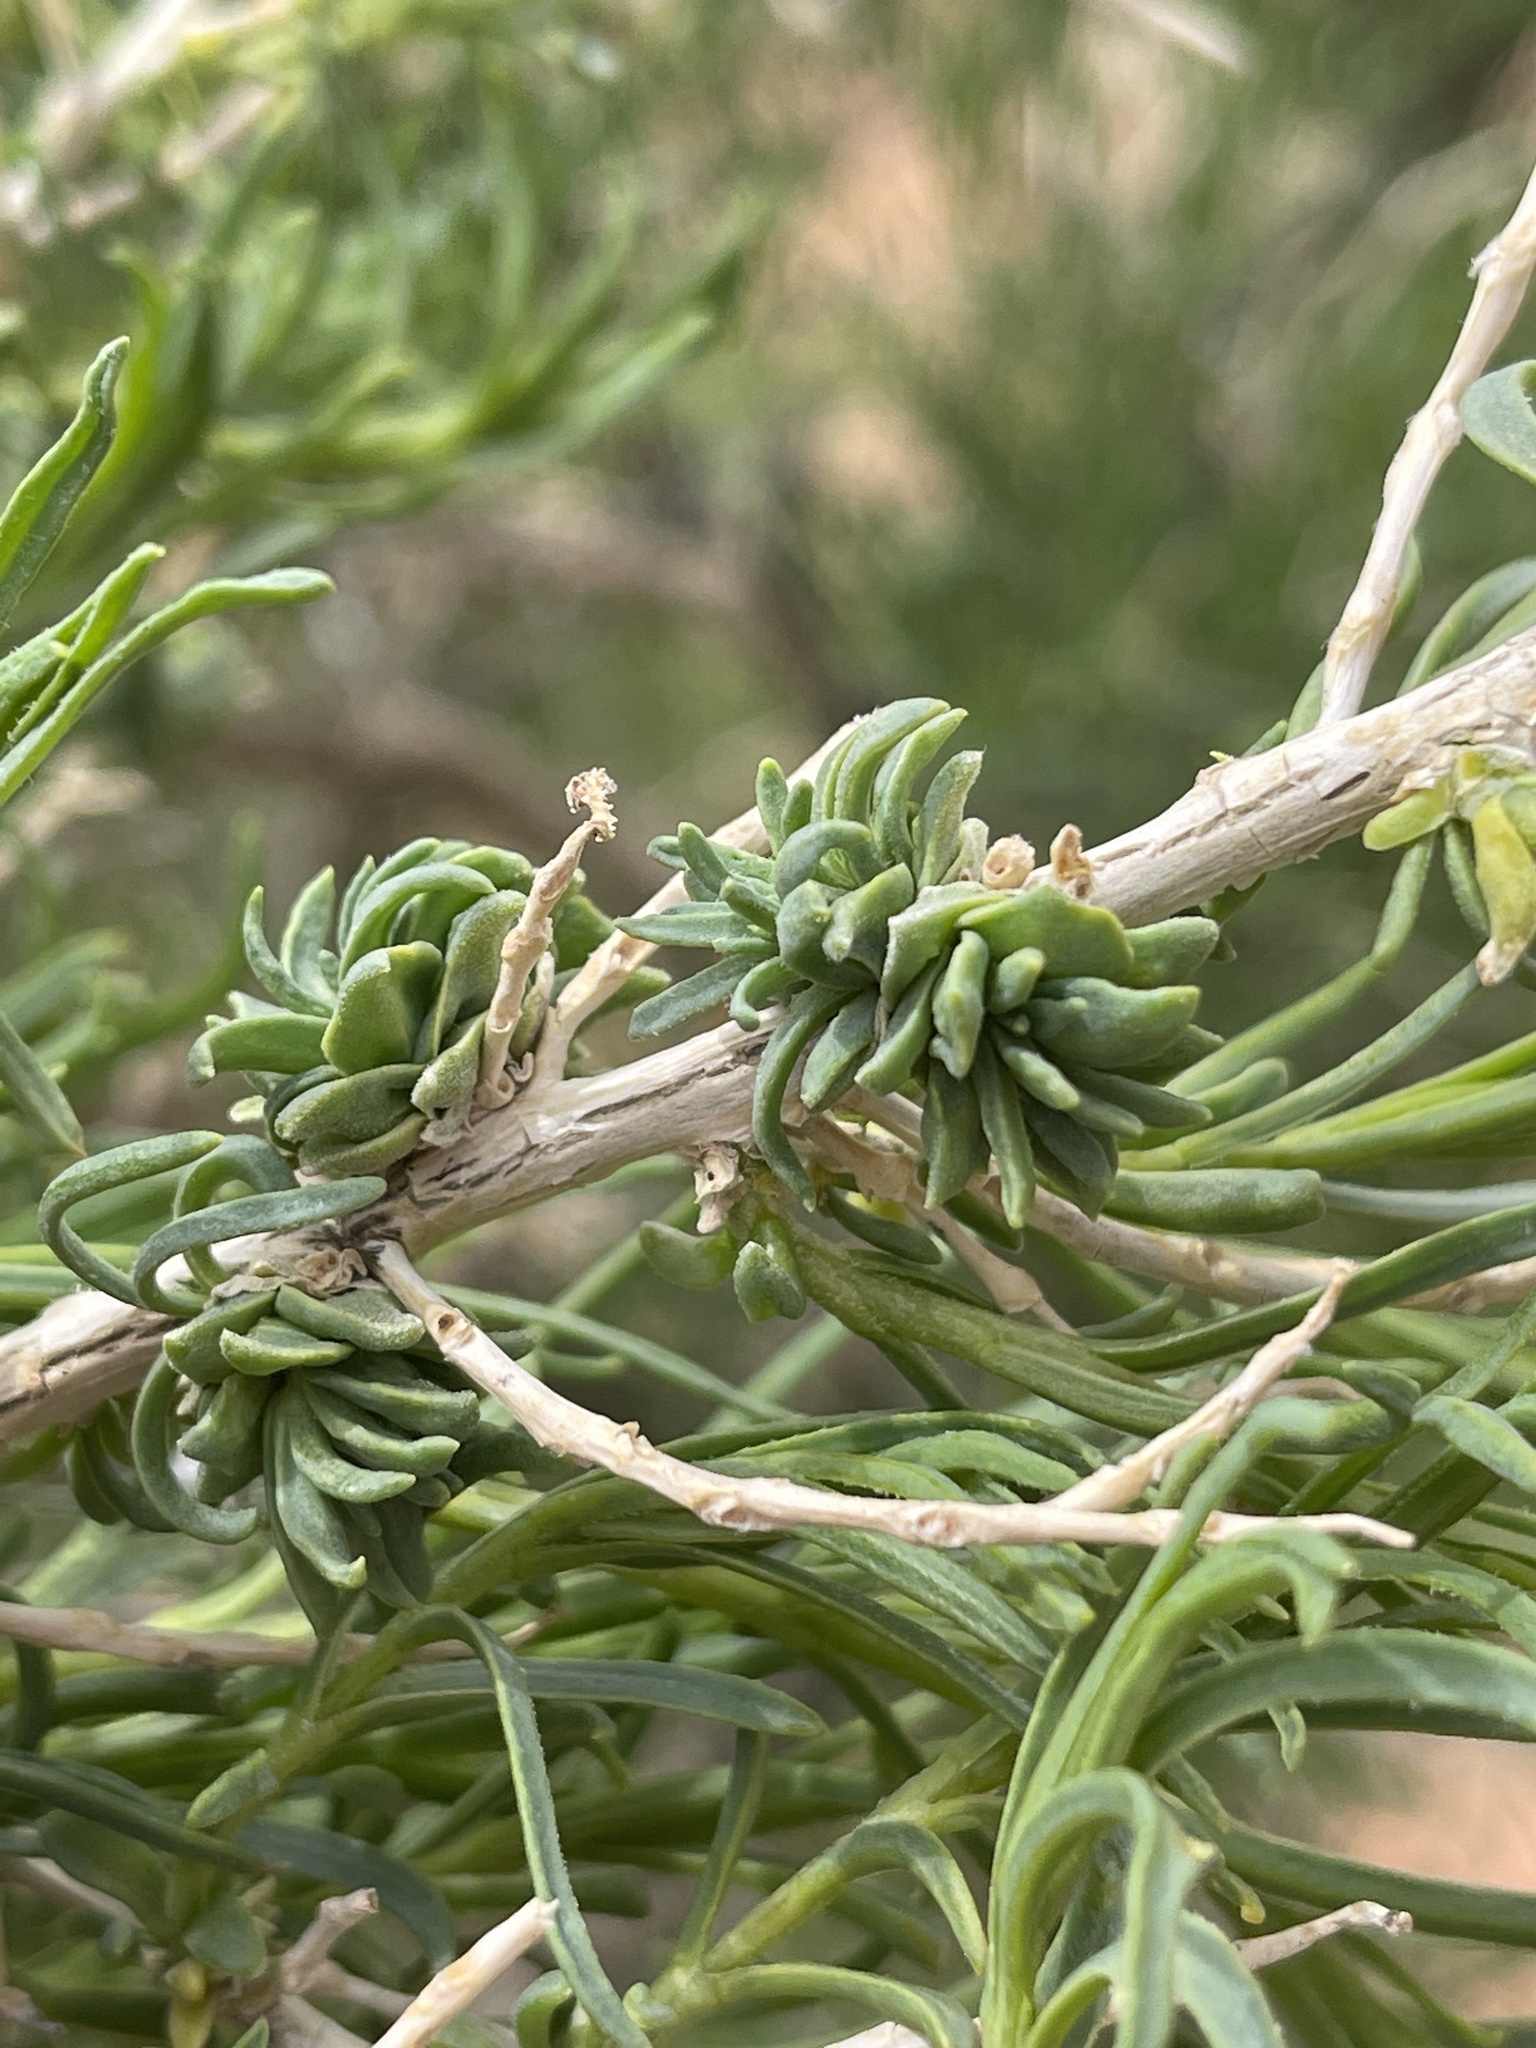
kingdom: Animalia
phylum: Arthropoda
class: Insecta
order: Diptera
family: Cecidomyiidae
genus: Halodiplosis
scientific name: Halodiplosis sarcobati
